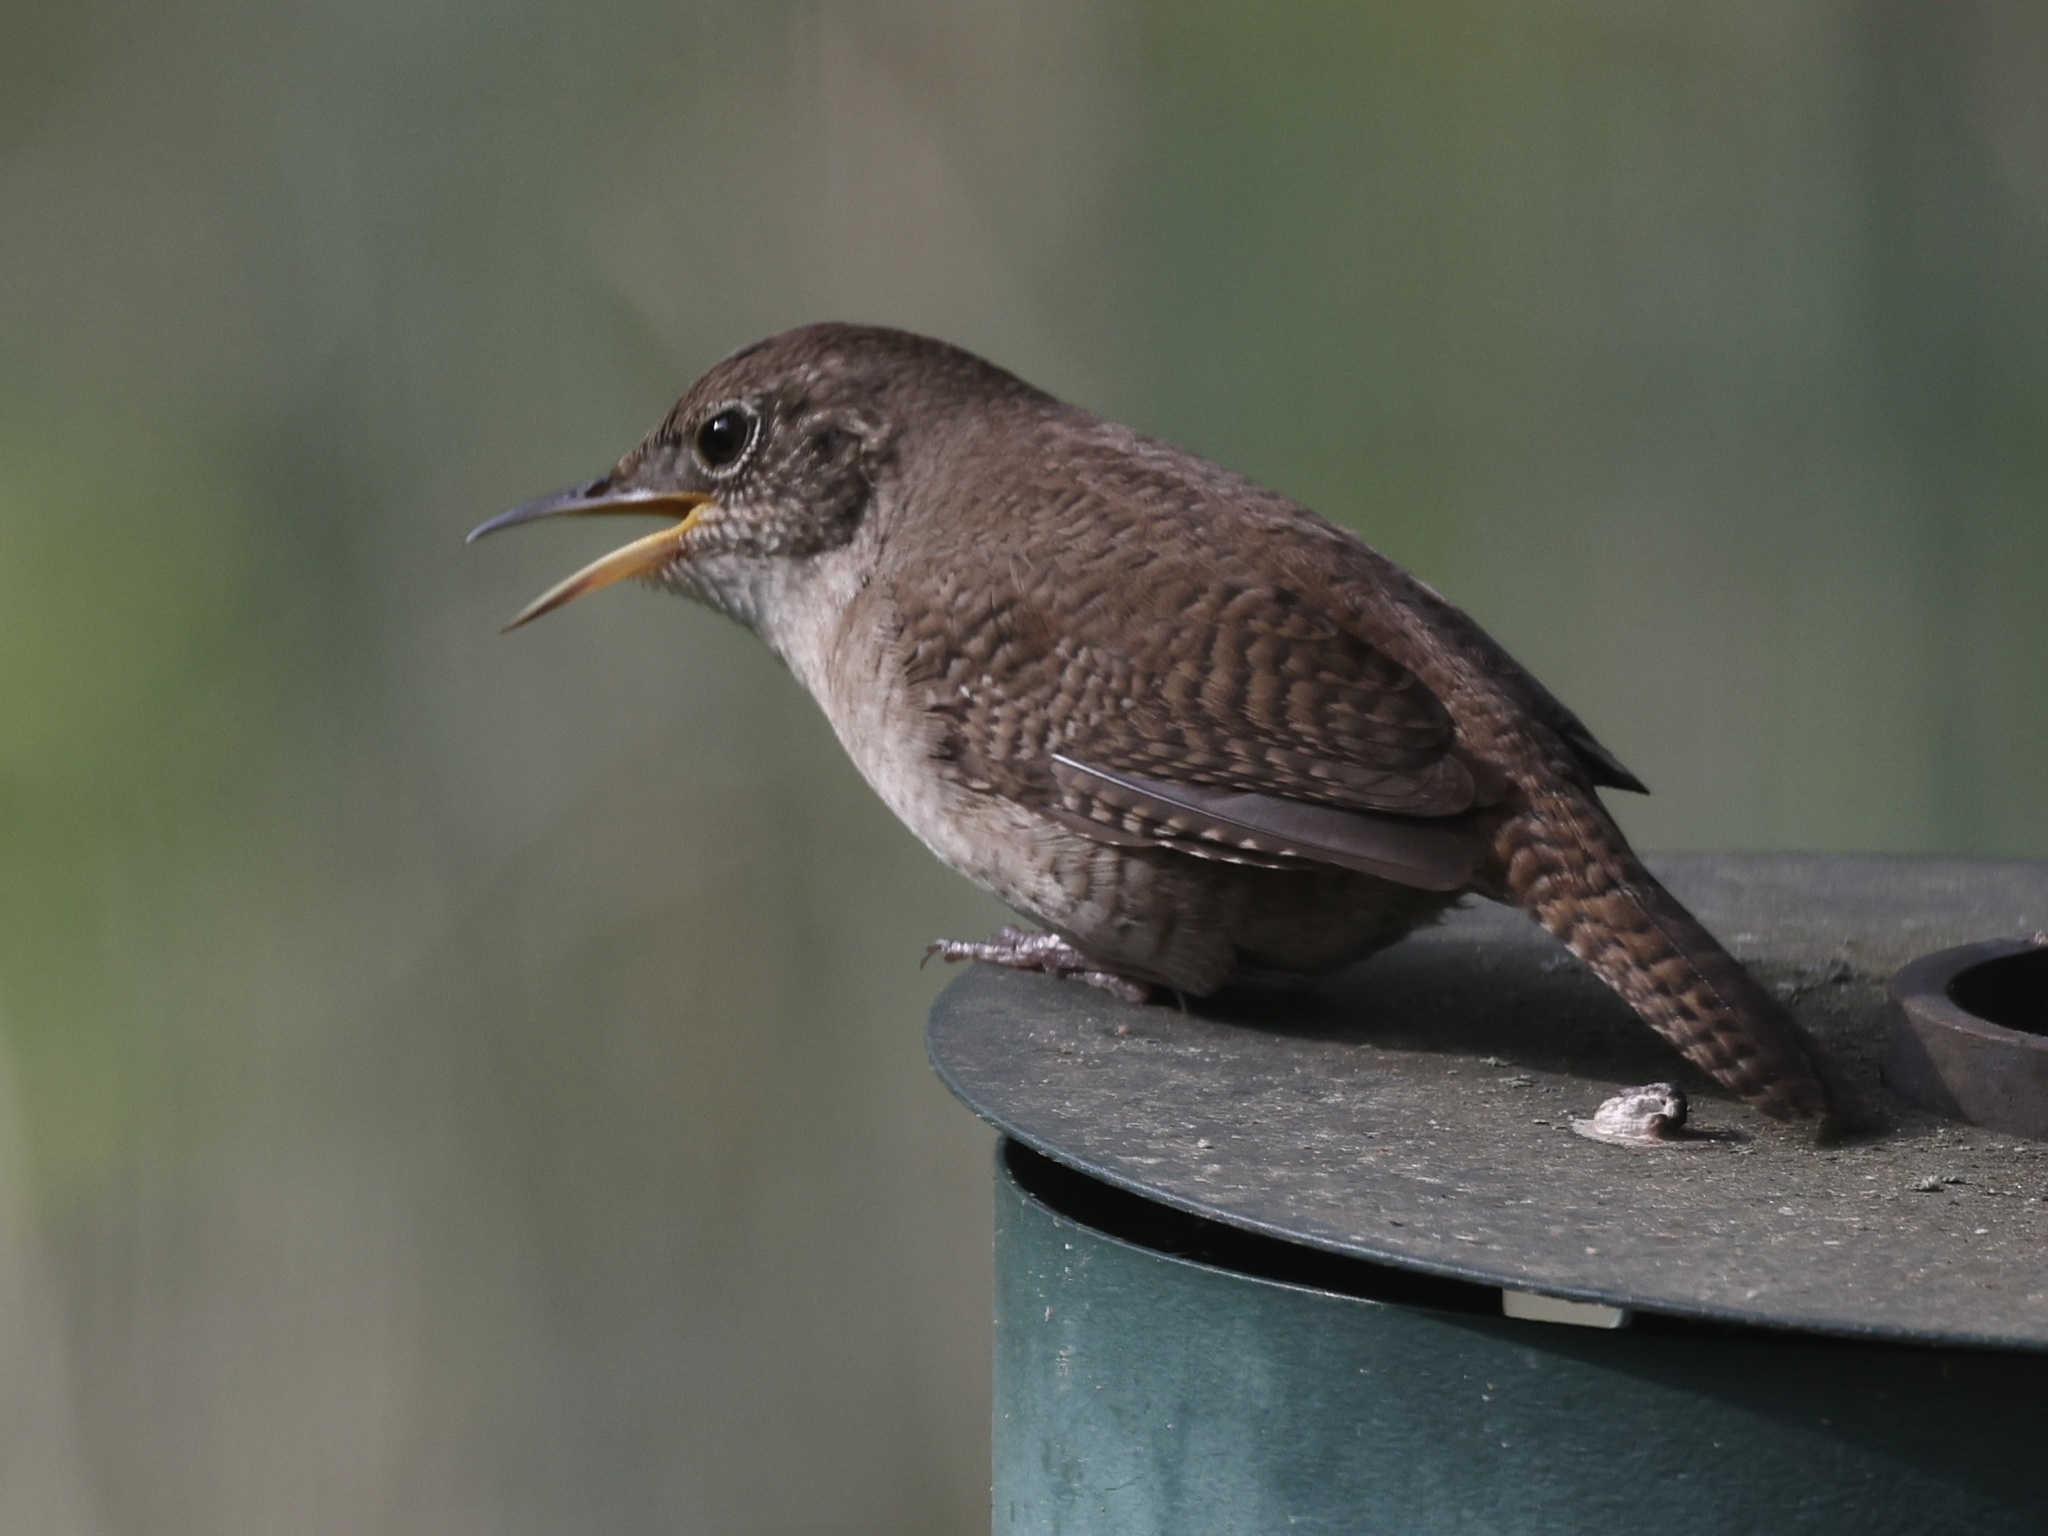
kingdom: Animalia
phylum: Chordata
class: Aves
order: Passeriformes
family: Troglodytidae
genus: Troglodytes
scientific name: Troglodytes aedon
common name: House wren
